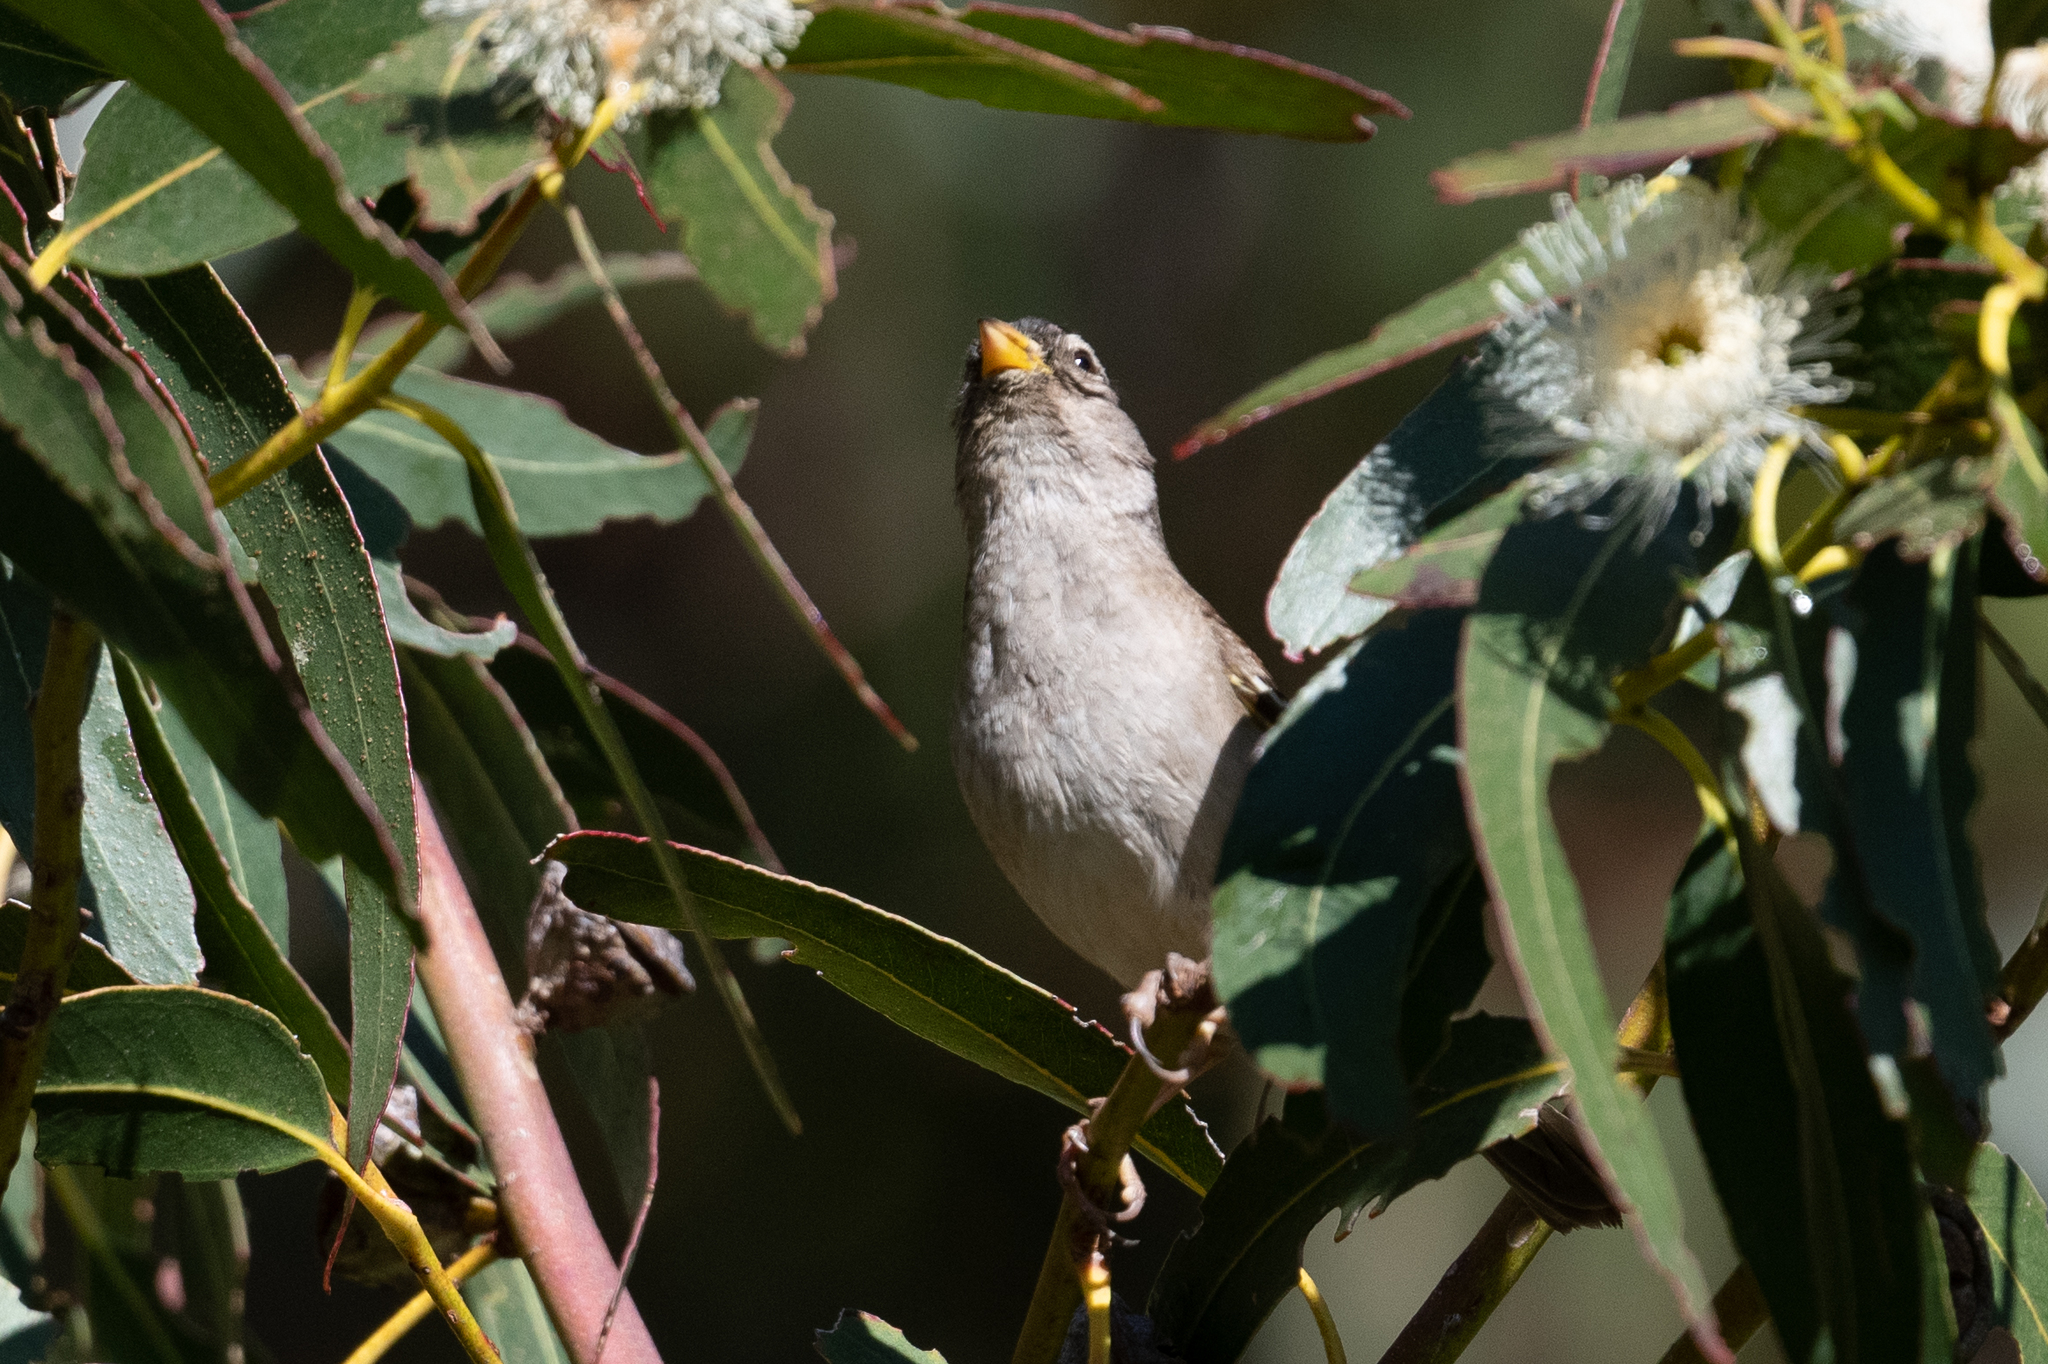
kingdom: Animalia
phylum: Chordata
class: Aves
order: Passeriformes
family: Passerellidae
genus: Zonotrichia
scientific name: Zonotrichia leucophrys
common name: White-crowned sparrow
